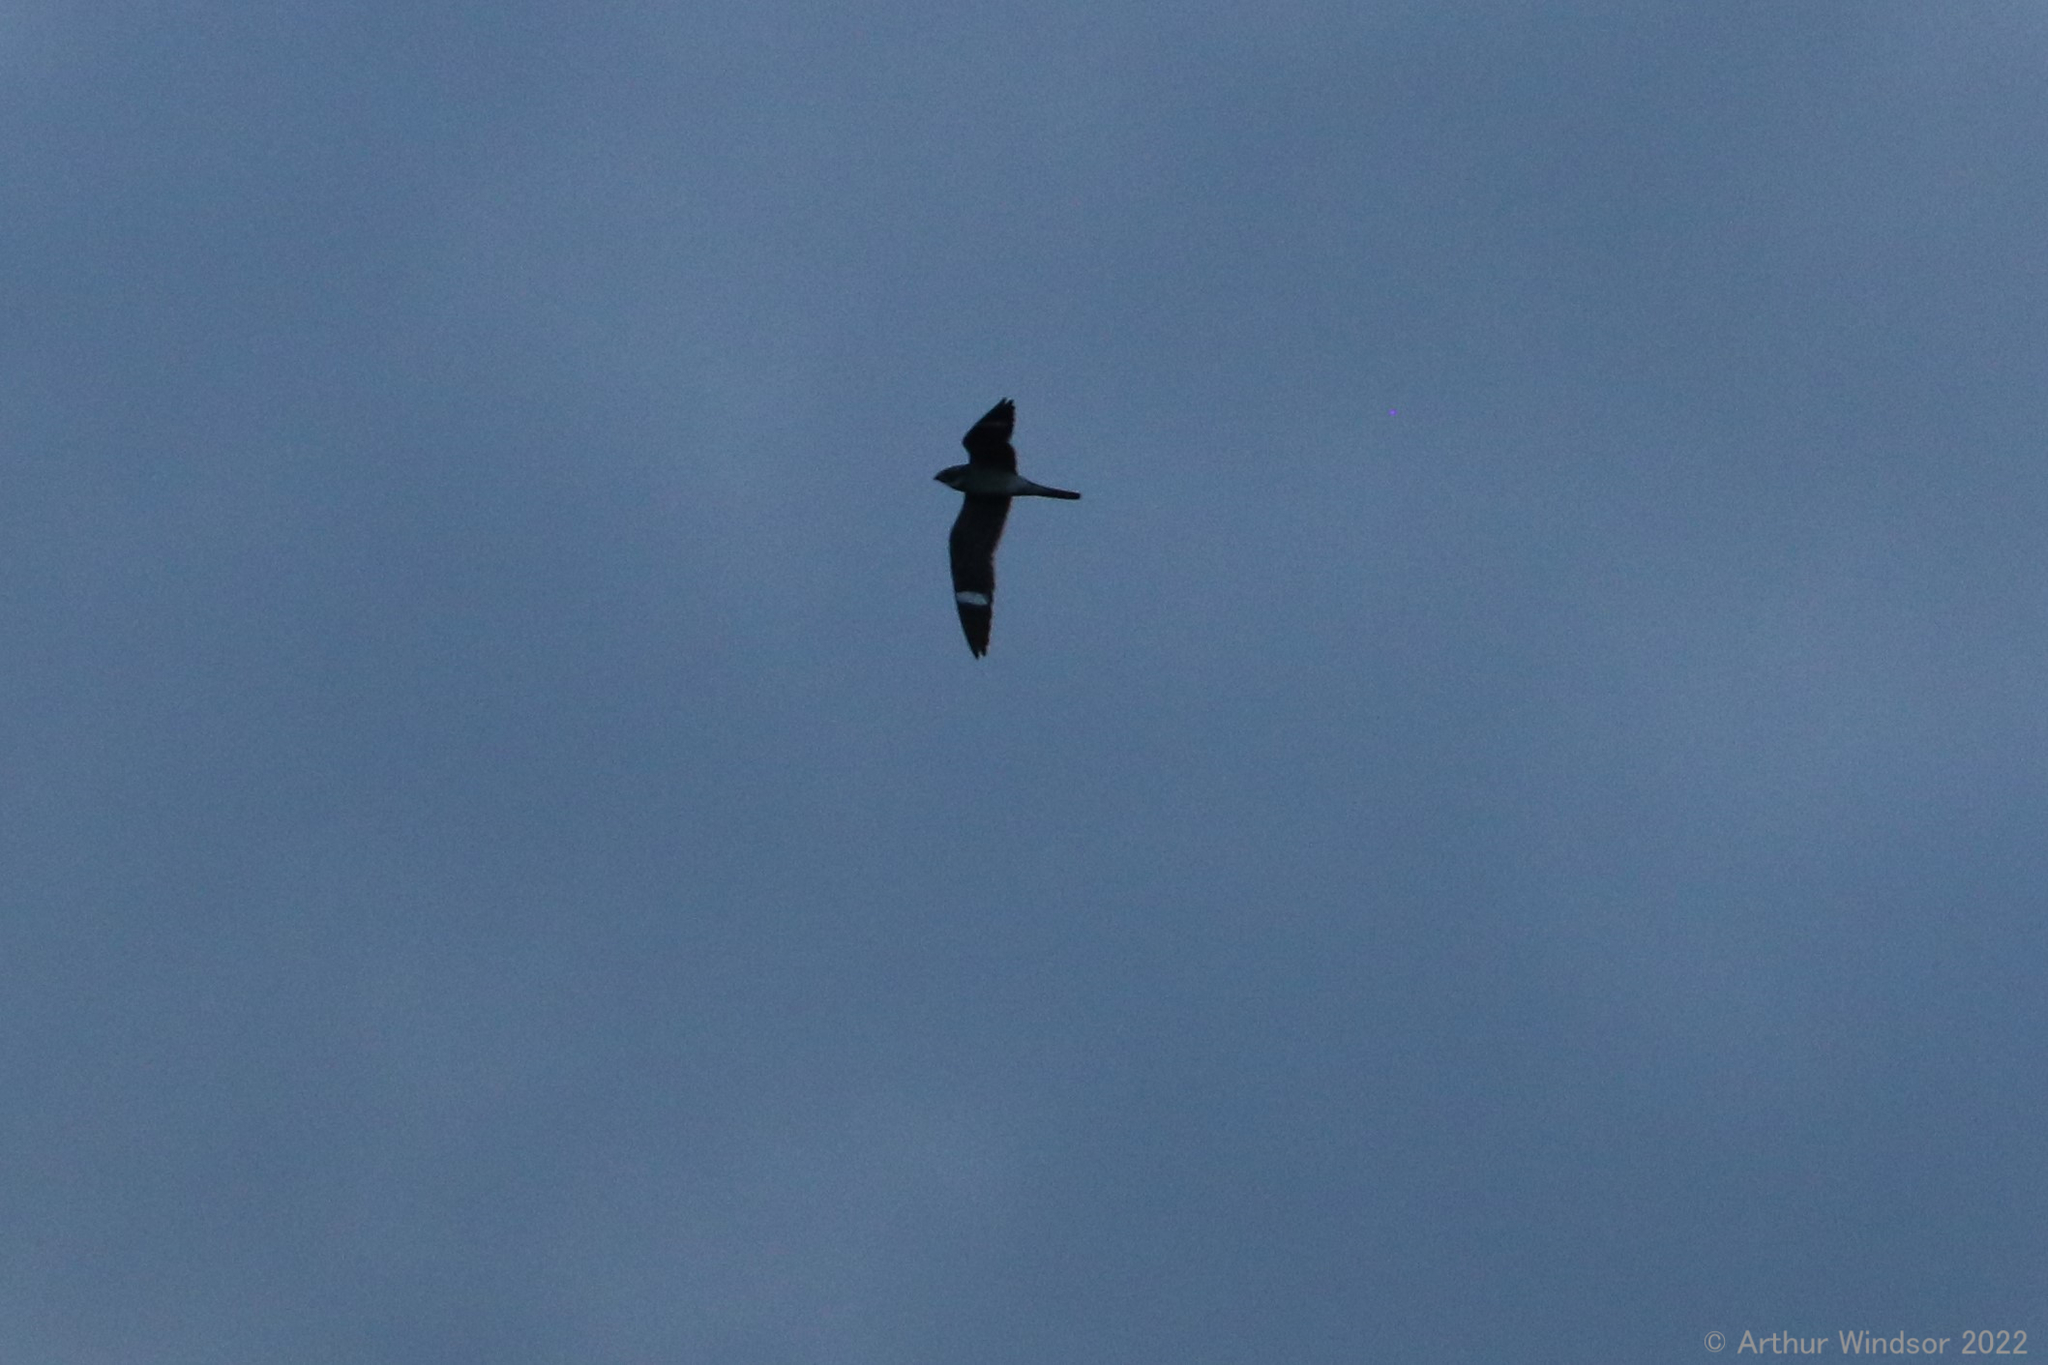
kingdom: Animalia
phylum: Chordata
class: Aves
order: Caprimulgiformes
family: Caprimulgidae
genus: Chordeiles
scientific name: Chordeiles minor
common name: Common nighthawk
